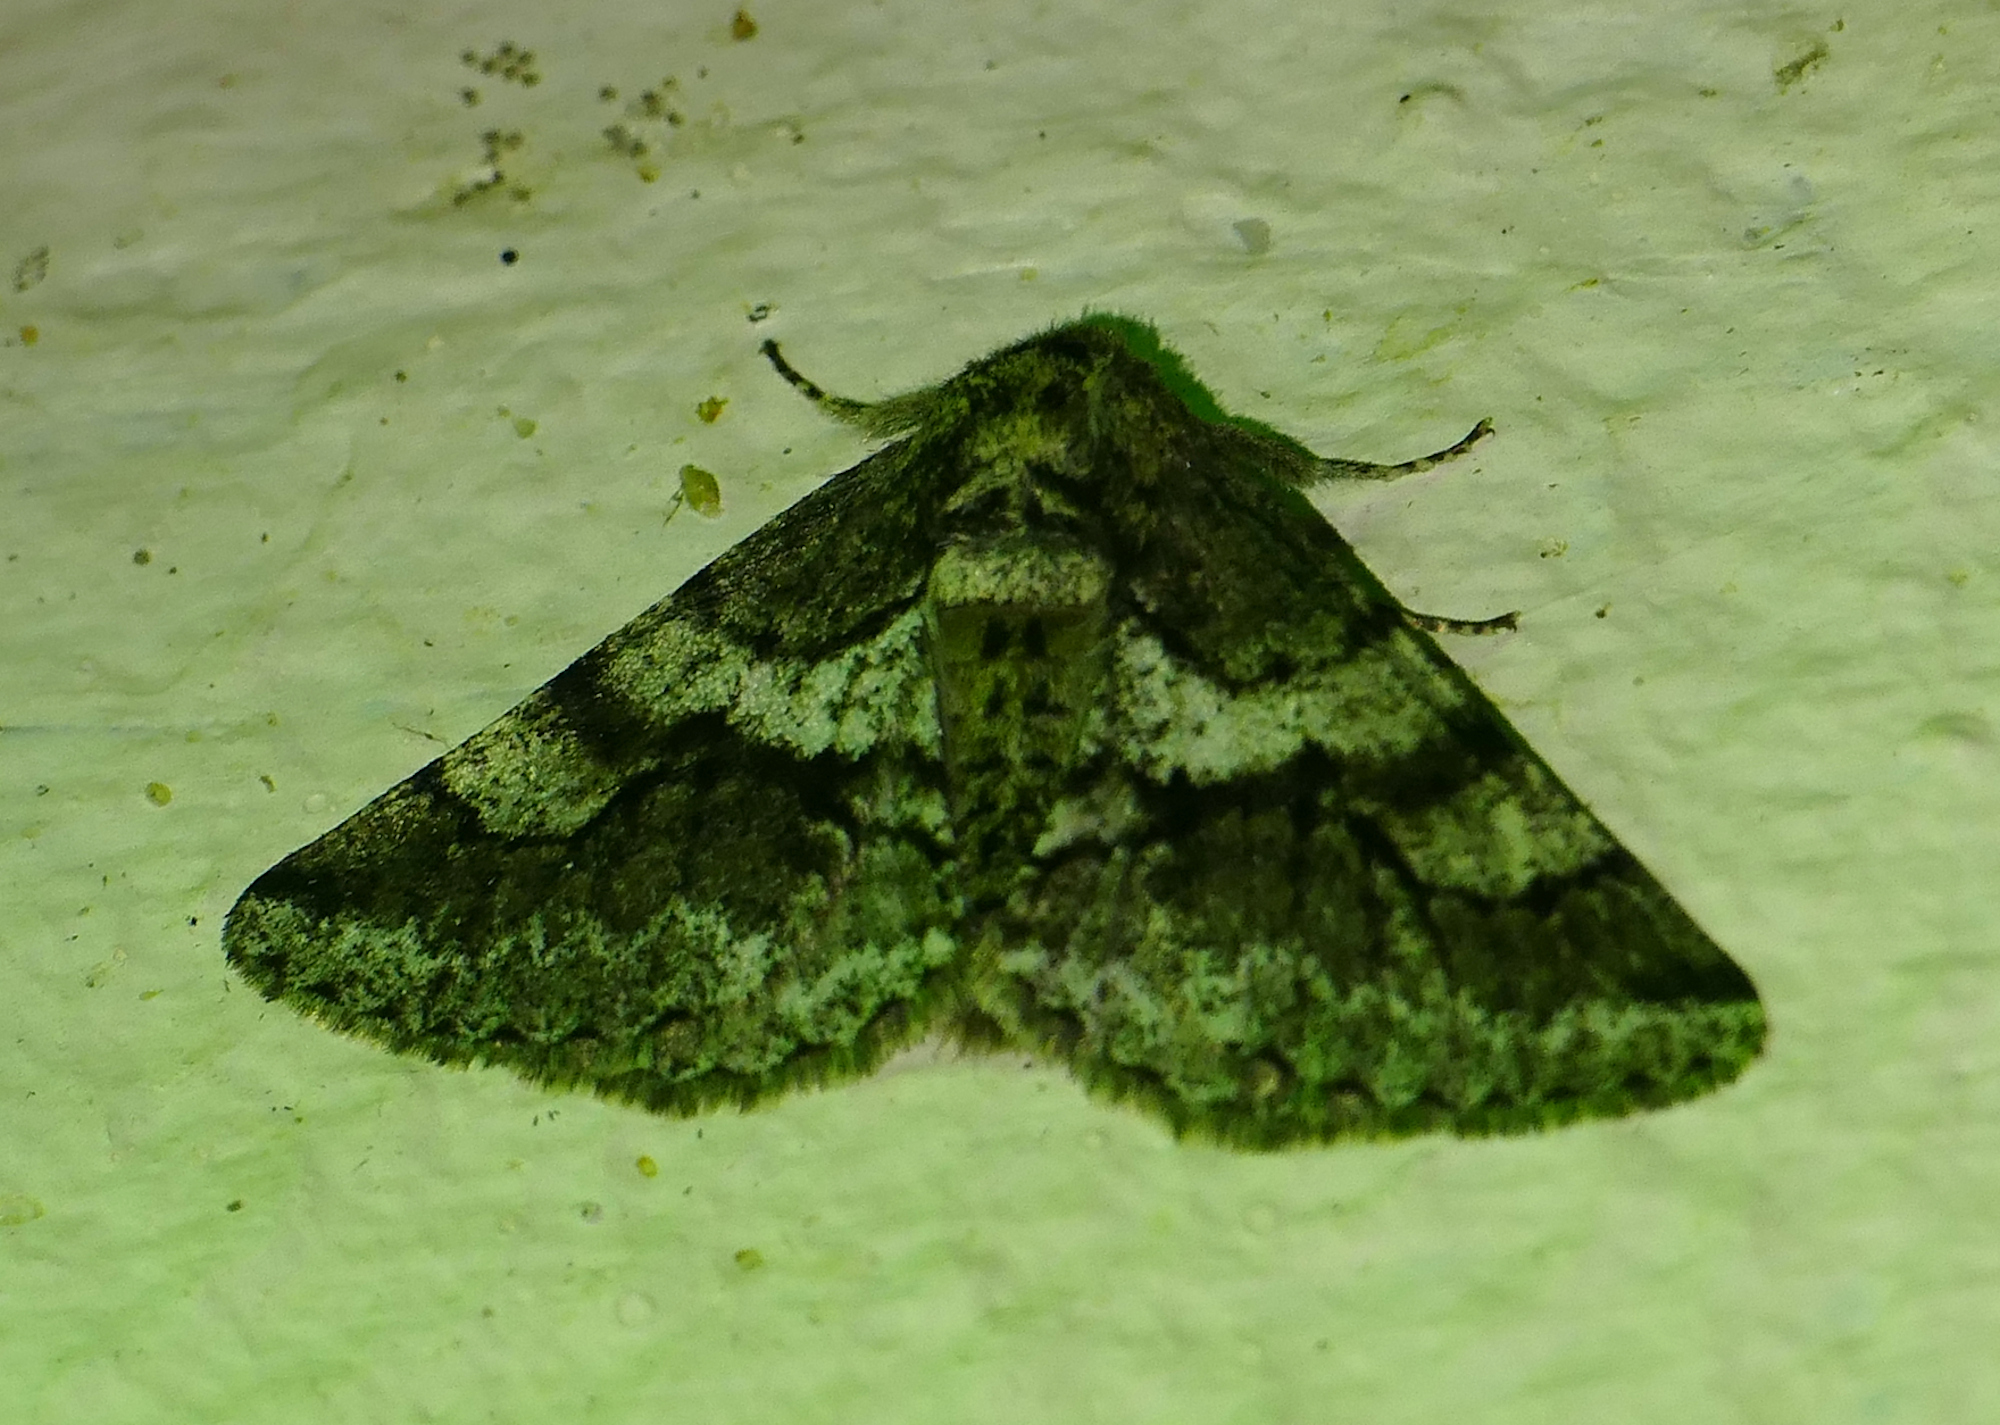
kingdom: Animalia
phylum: Arthropoda
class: Insecta
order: Lepidoptera
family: Geometridae
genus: Lycia
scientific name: Lycia ypsilon
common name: Wooly gray
